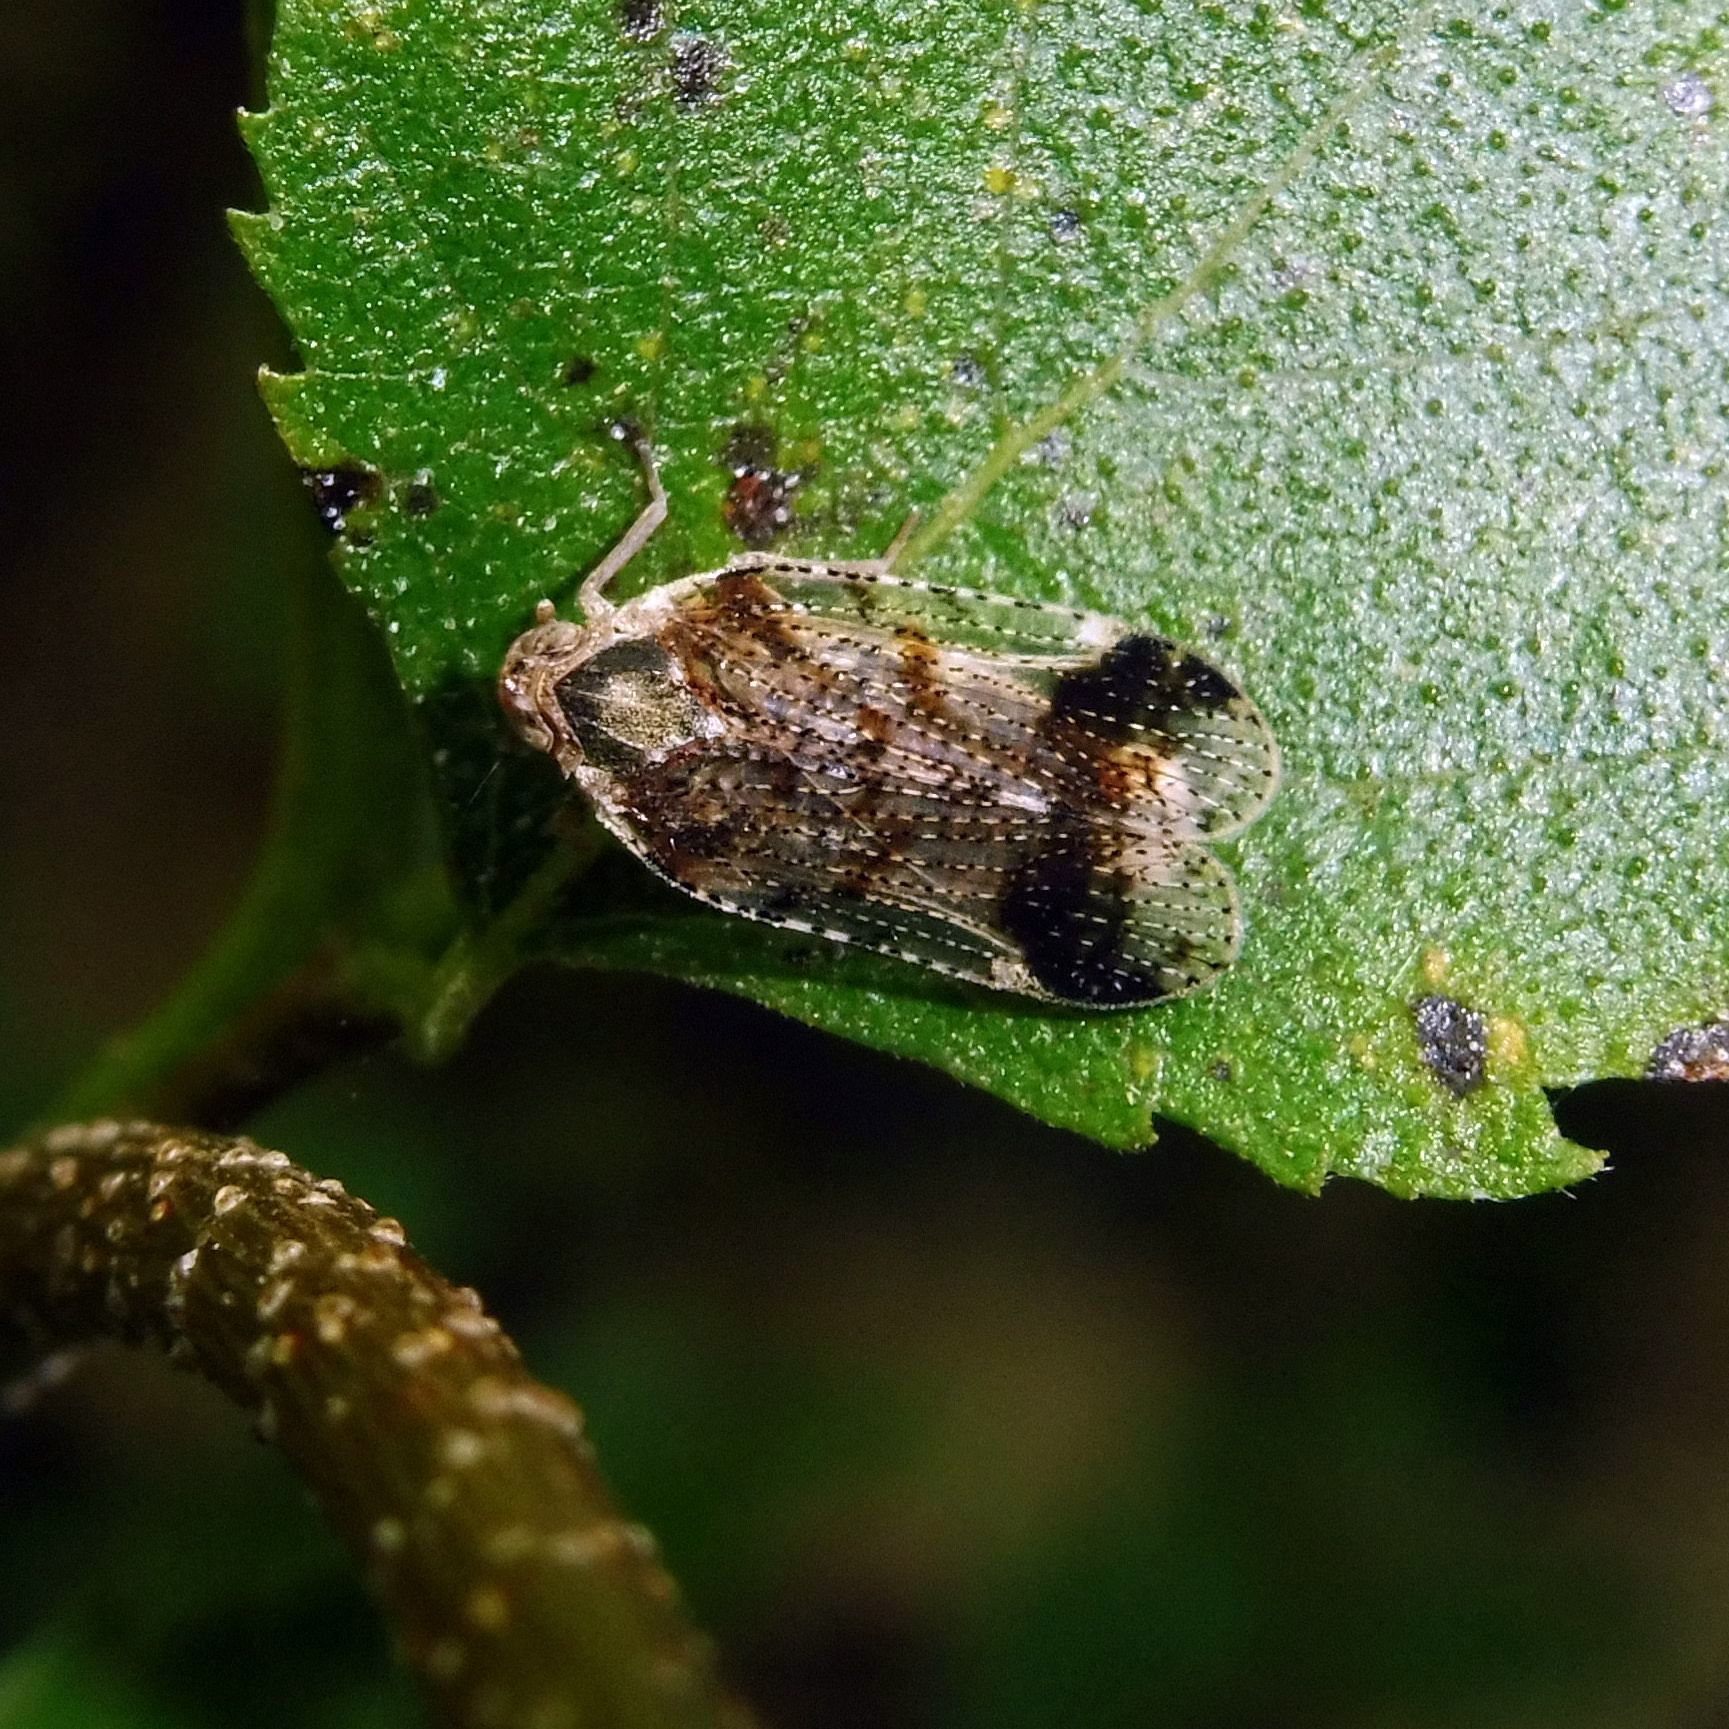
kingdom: Animalia
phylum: Arthropoda
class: Insecta
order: Hemiptera
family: Cixiidae
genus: Cixius
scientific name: Cixius cunicularius
